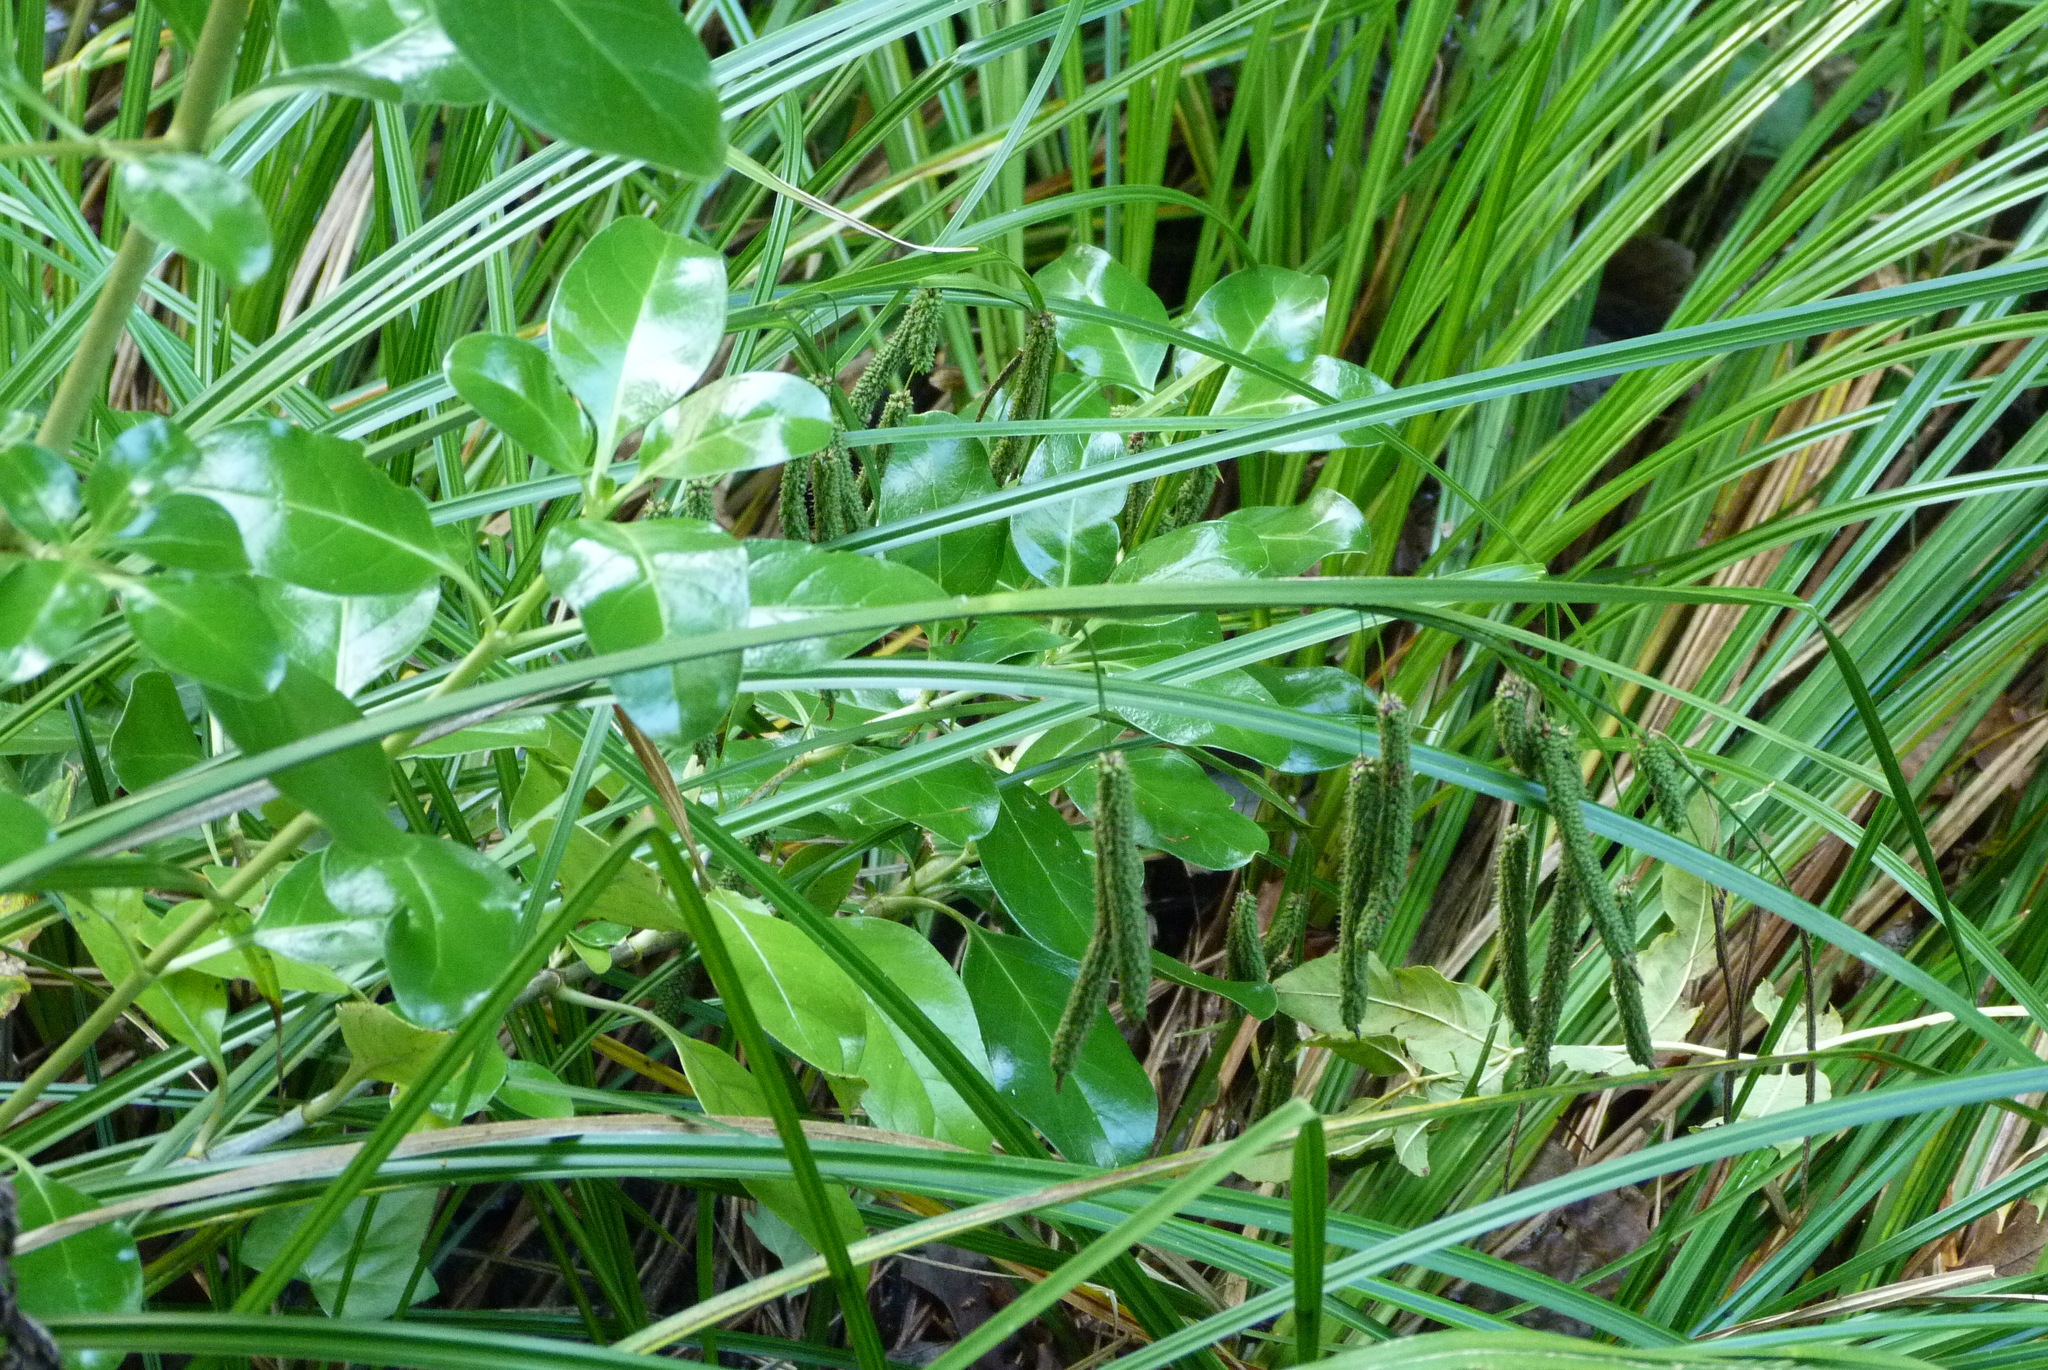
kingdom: Plantae
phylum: Tracheophyta
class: Liliopsida
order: Poales
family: Cyperaceae
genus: Carex
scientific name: Carex geminata
